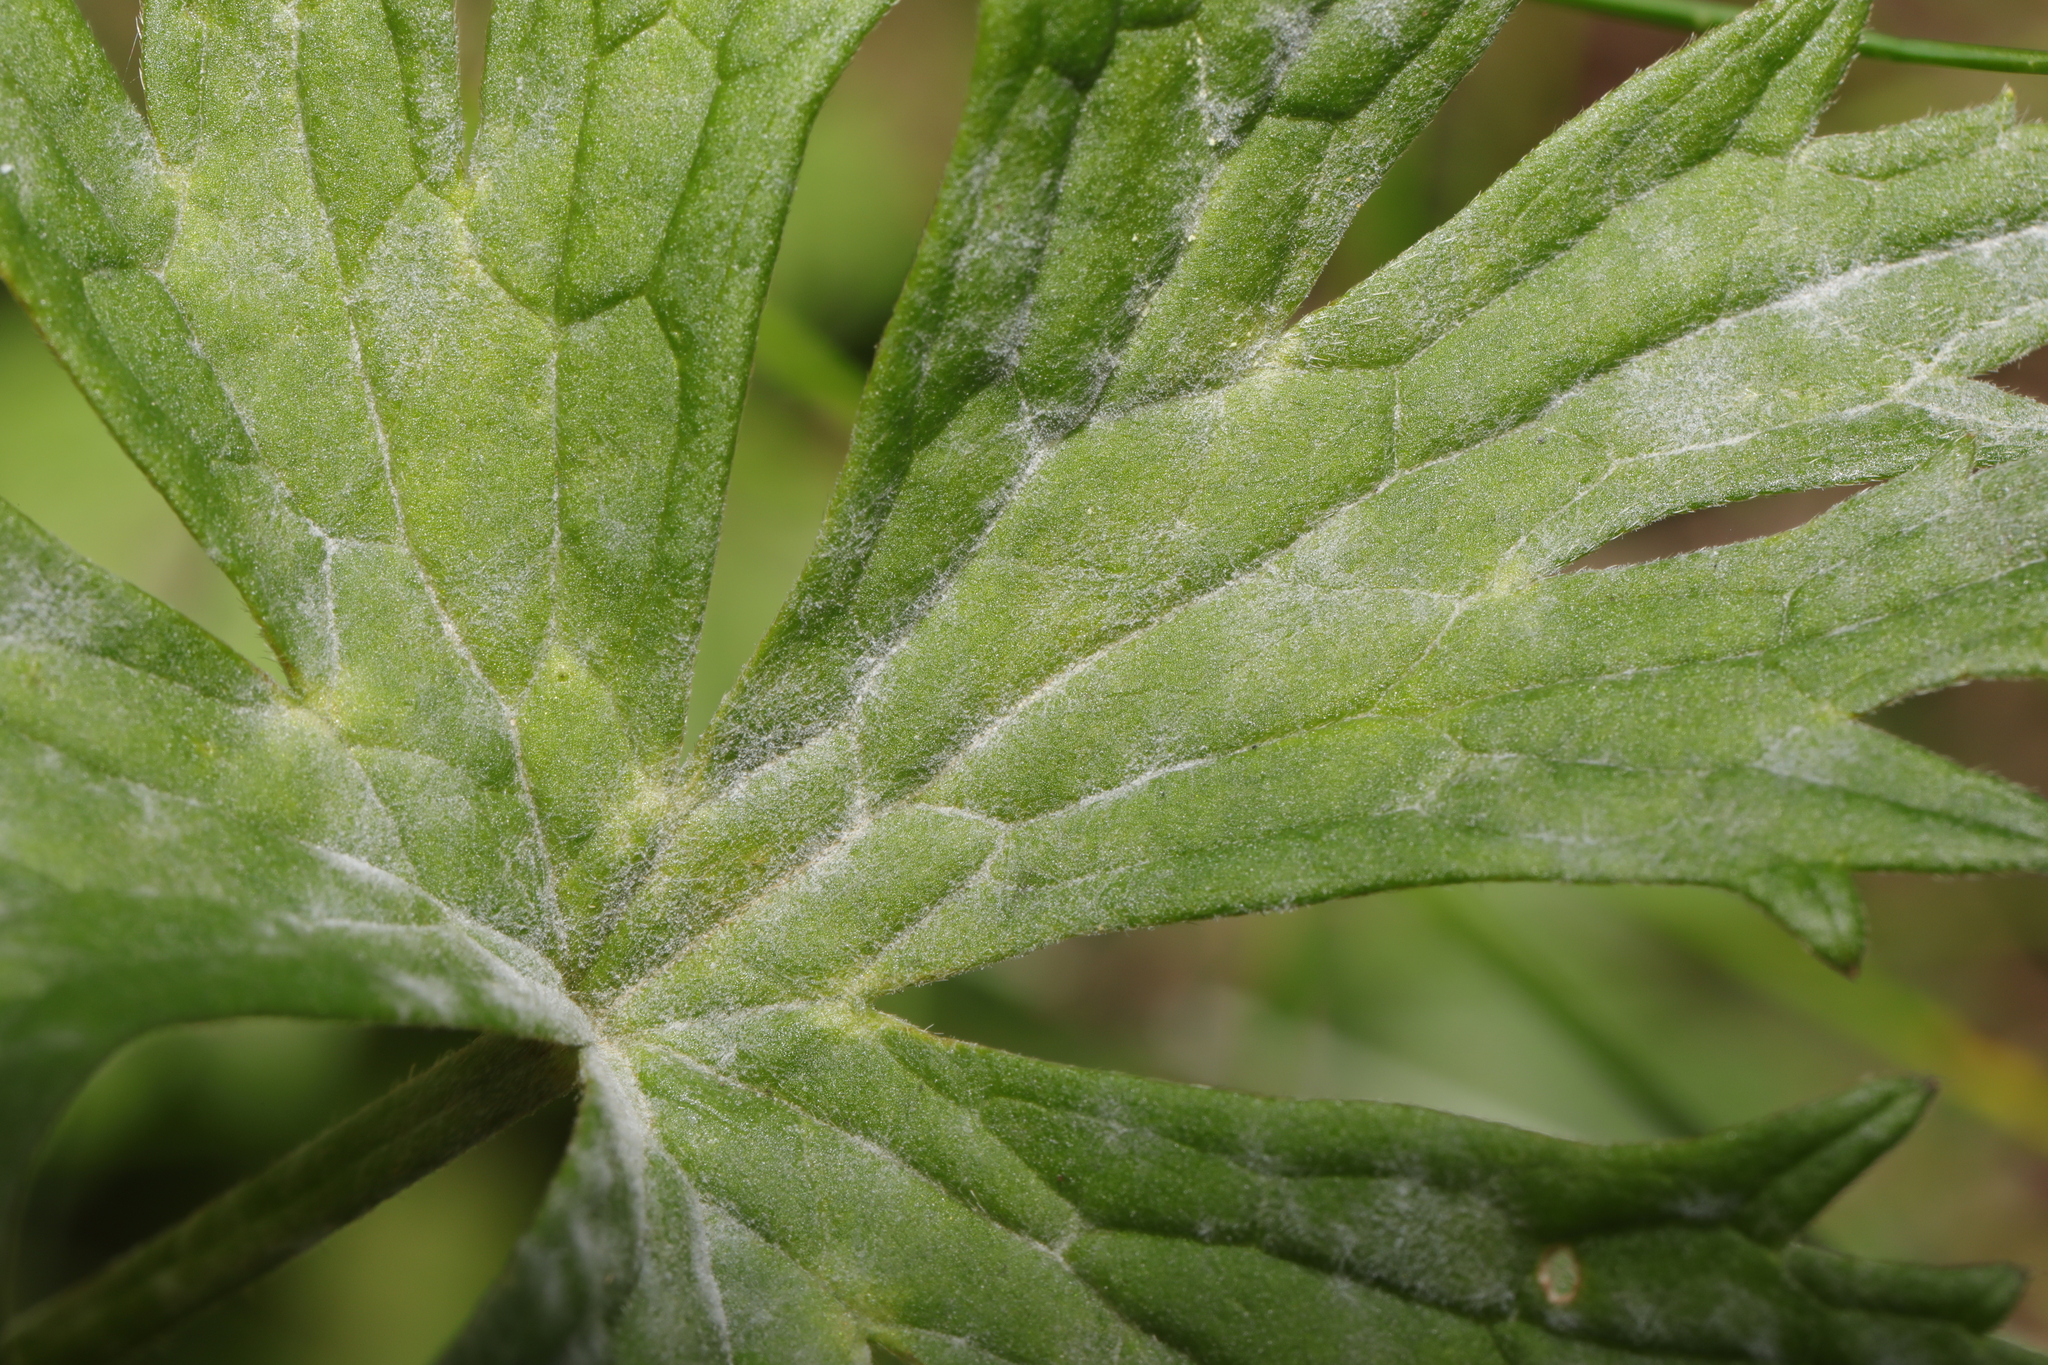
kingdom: Fungi
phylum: Ascomycota
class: Leotiomycetes
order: Helotiales
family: Erysiphaceae
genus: Erysiphe
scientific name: Erysiphe aquilegiae
